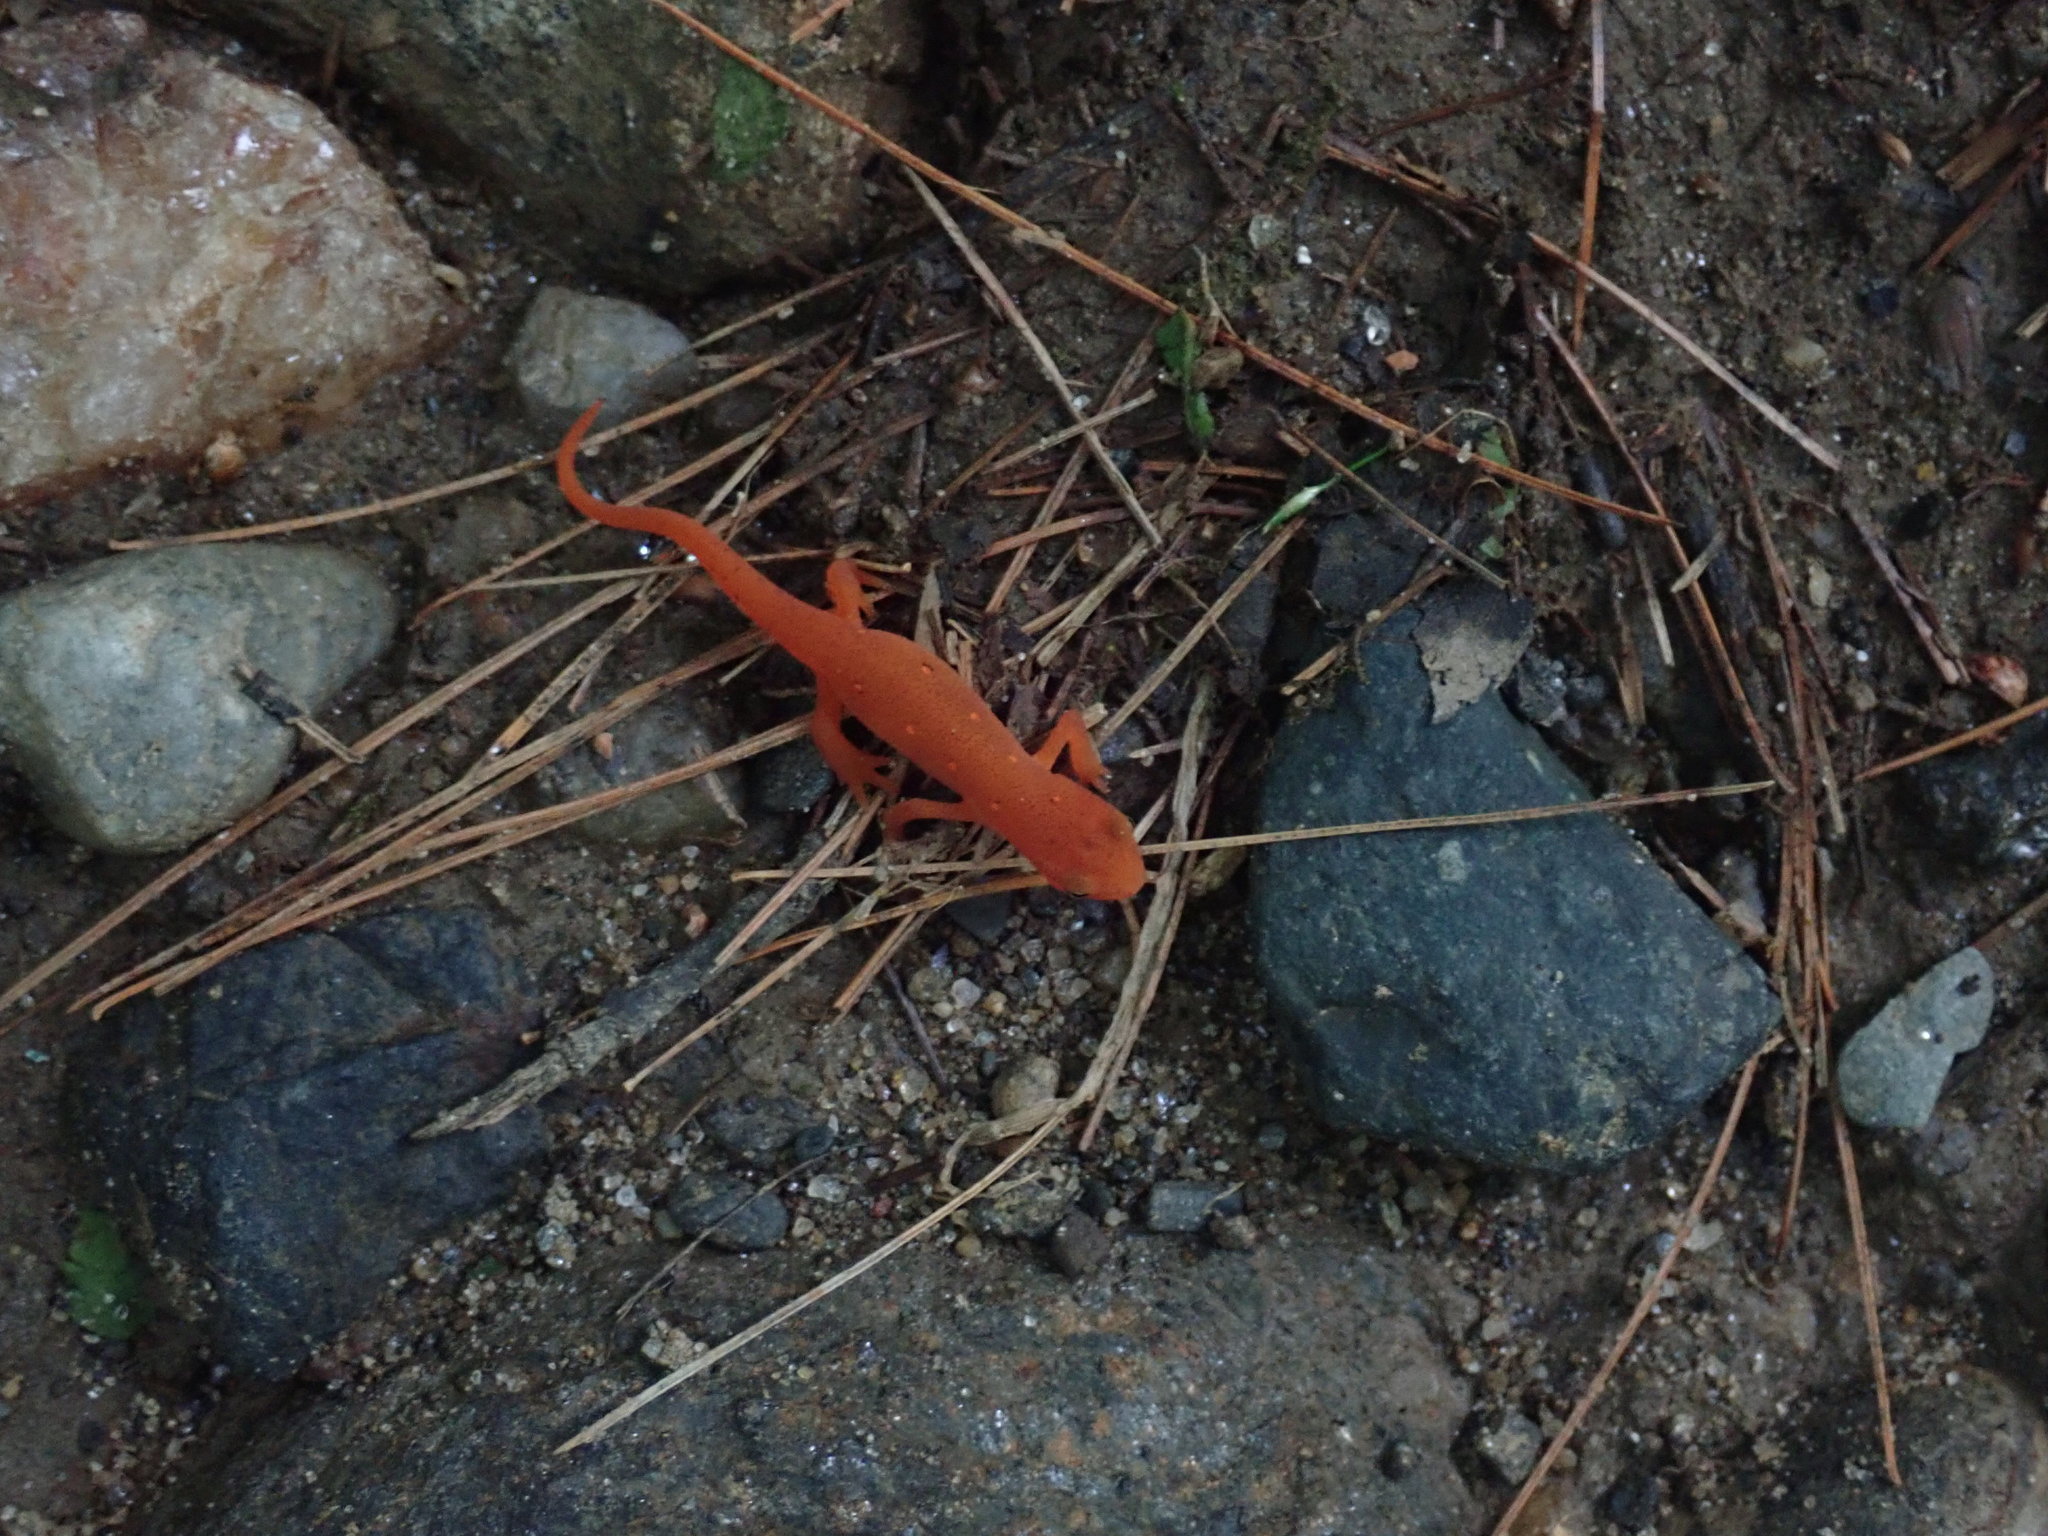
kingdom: Animalia
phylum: Chordata
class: Amphibia
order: Caudata
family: Salamandridae
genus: Notophthalmus
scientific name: Notophthalmus viridescens
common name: Eastern newt
